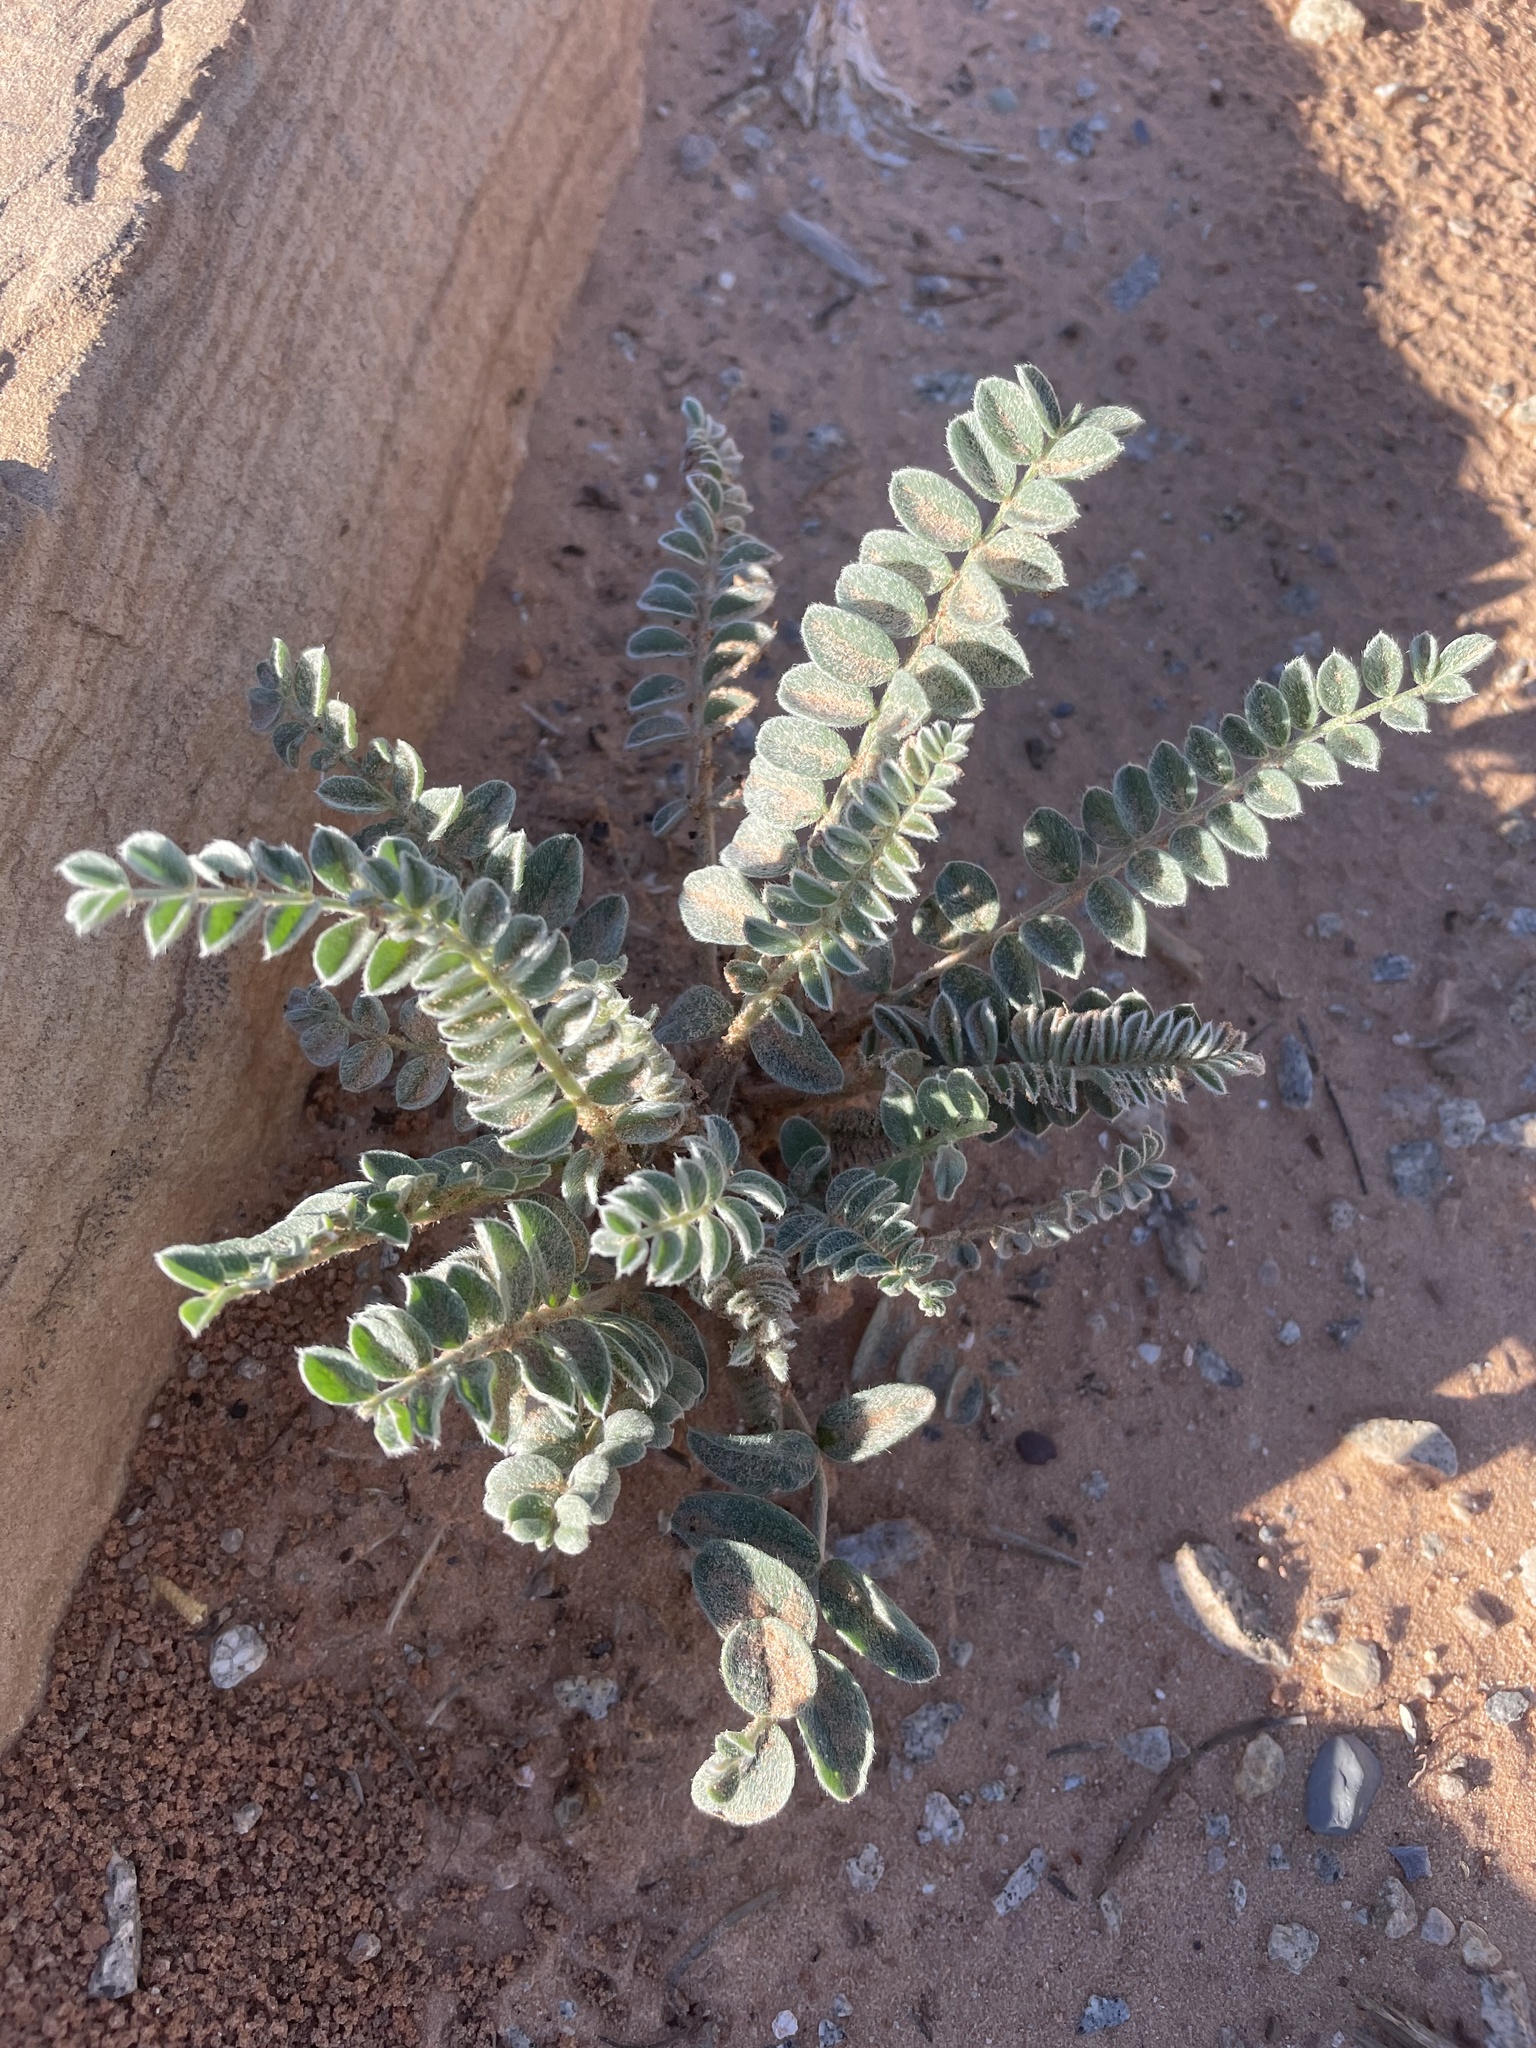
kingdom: Plantae
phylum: Tracheophyta
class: Magnoliopsida
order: Fabales
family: Fabaceae
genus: Astragalus
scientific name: Astragalus mollissimus
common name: Woolly locoweed
